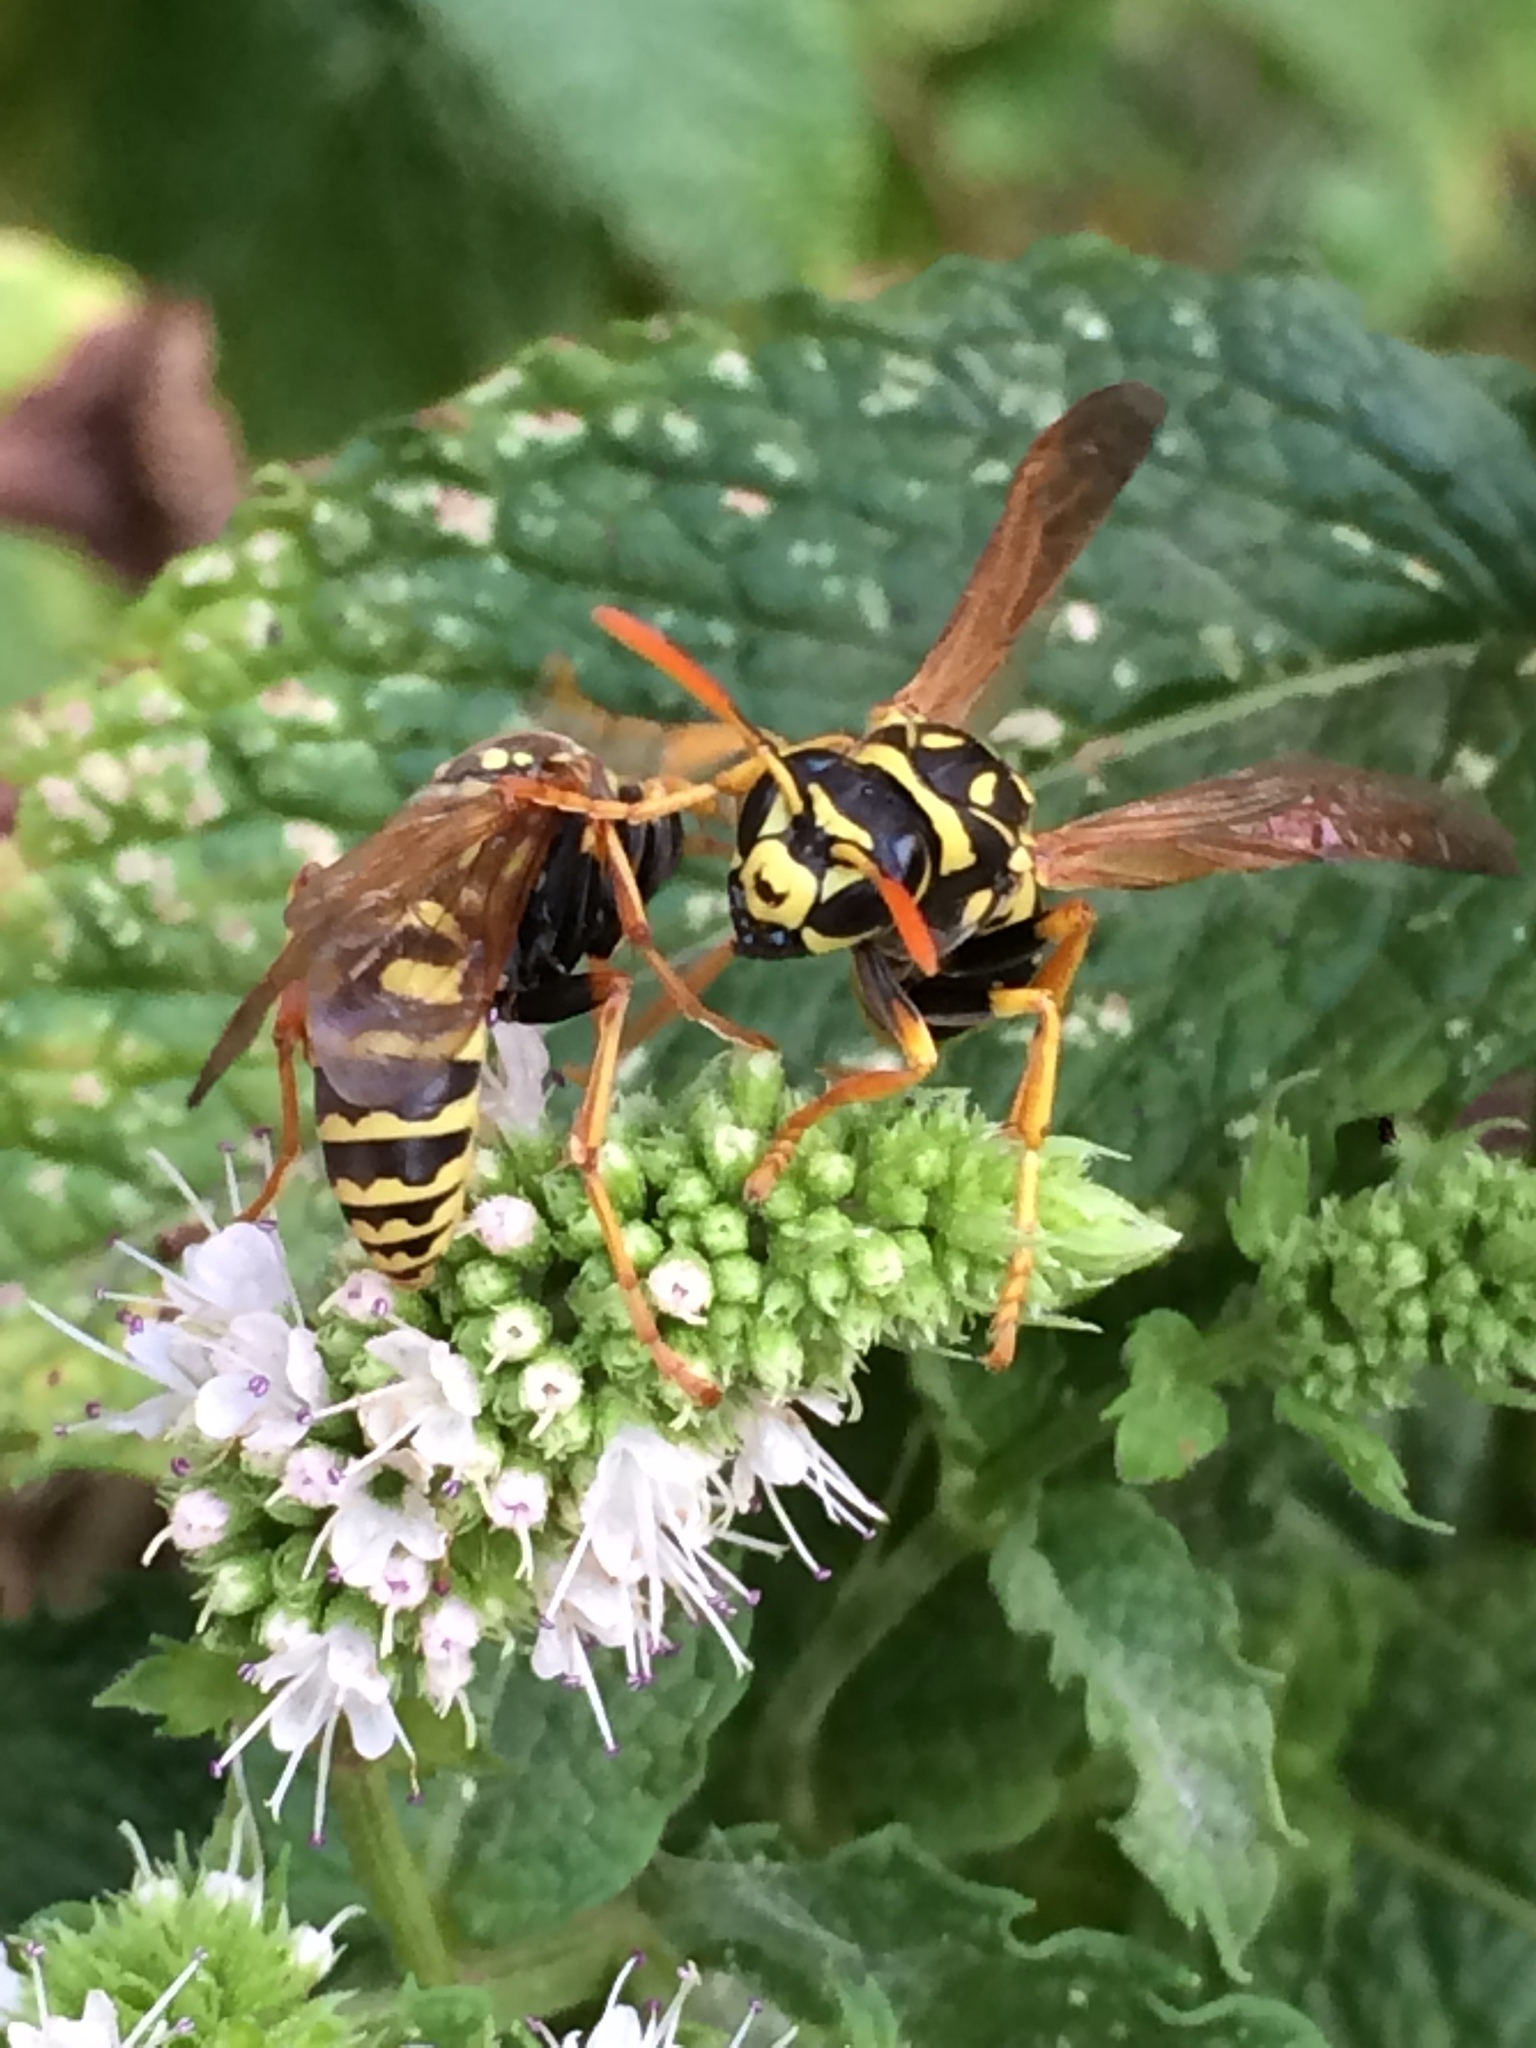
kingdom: Animalia
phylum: Arthropoda
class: Insecta
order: Hymenoptera
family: Eumenidae
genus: Polistes
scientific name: Polistes dominula
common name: Paper wasp
